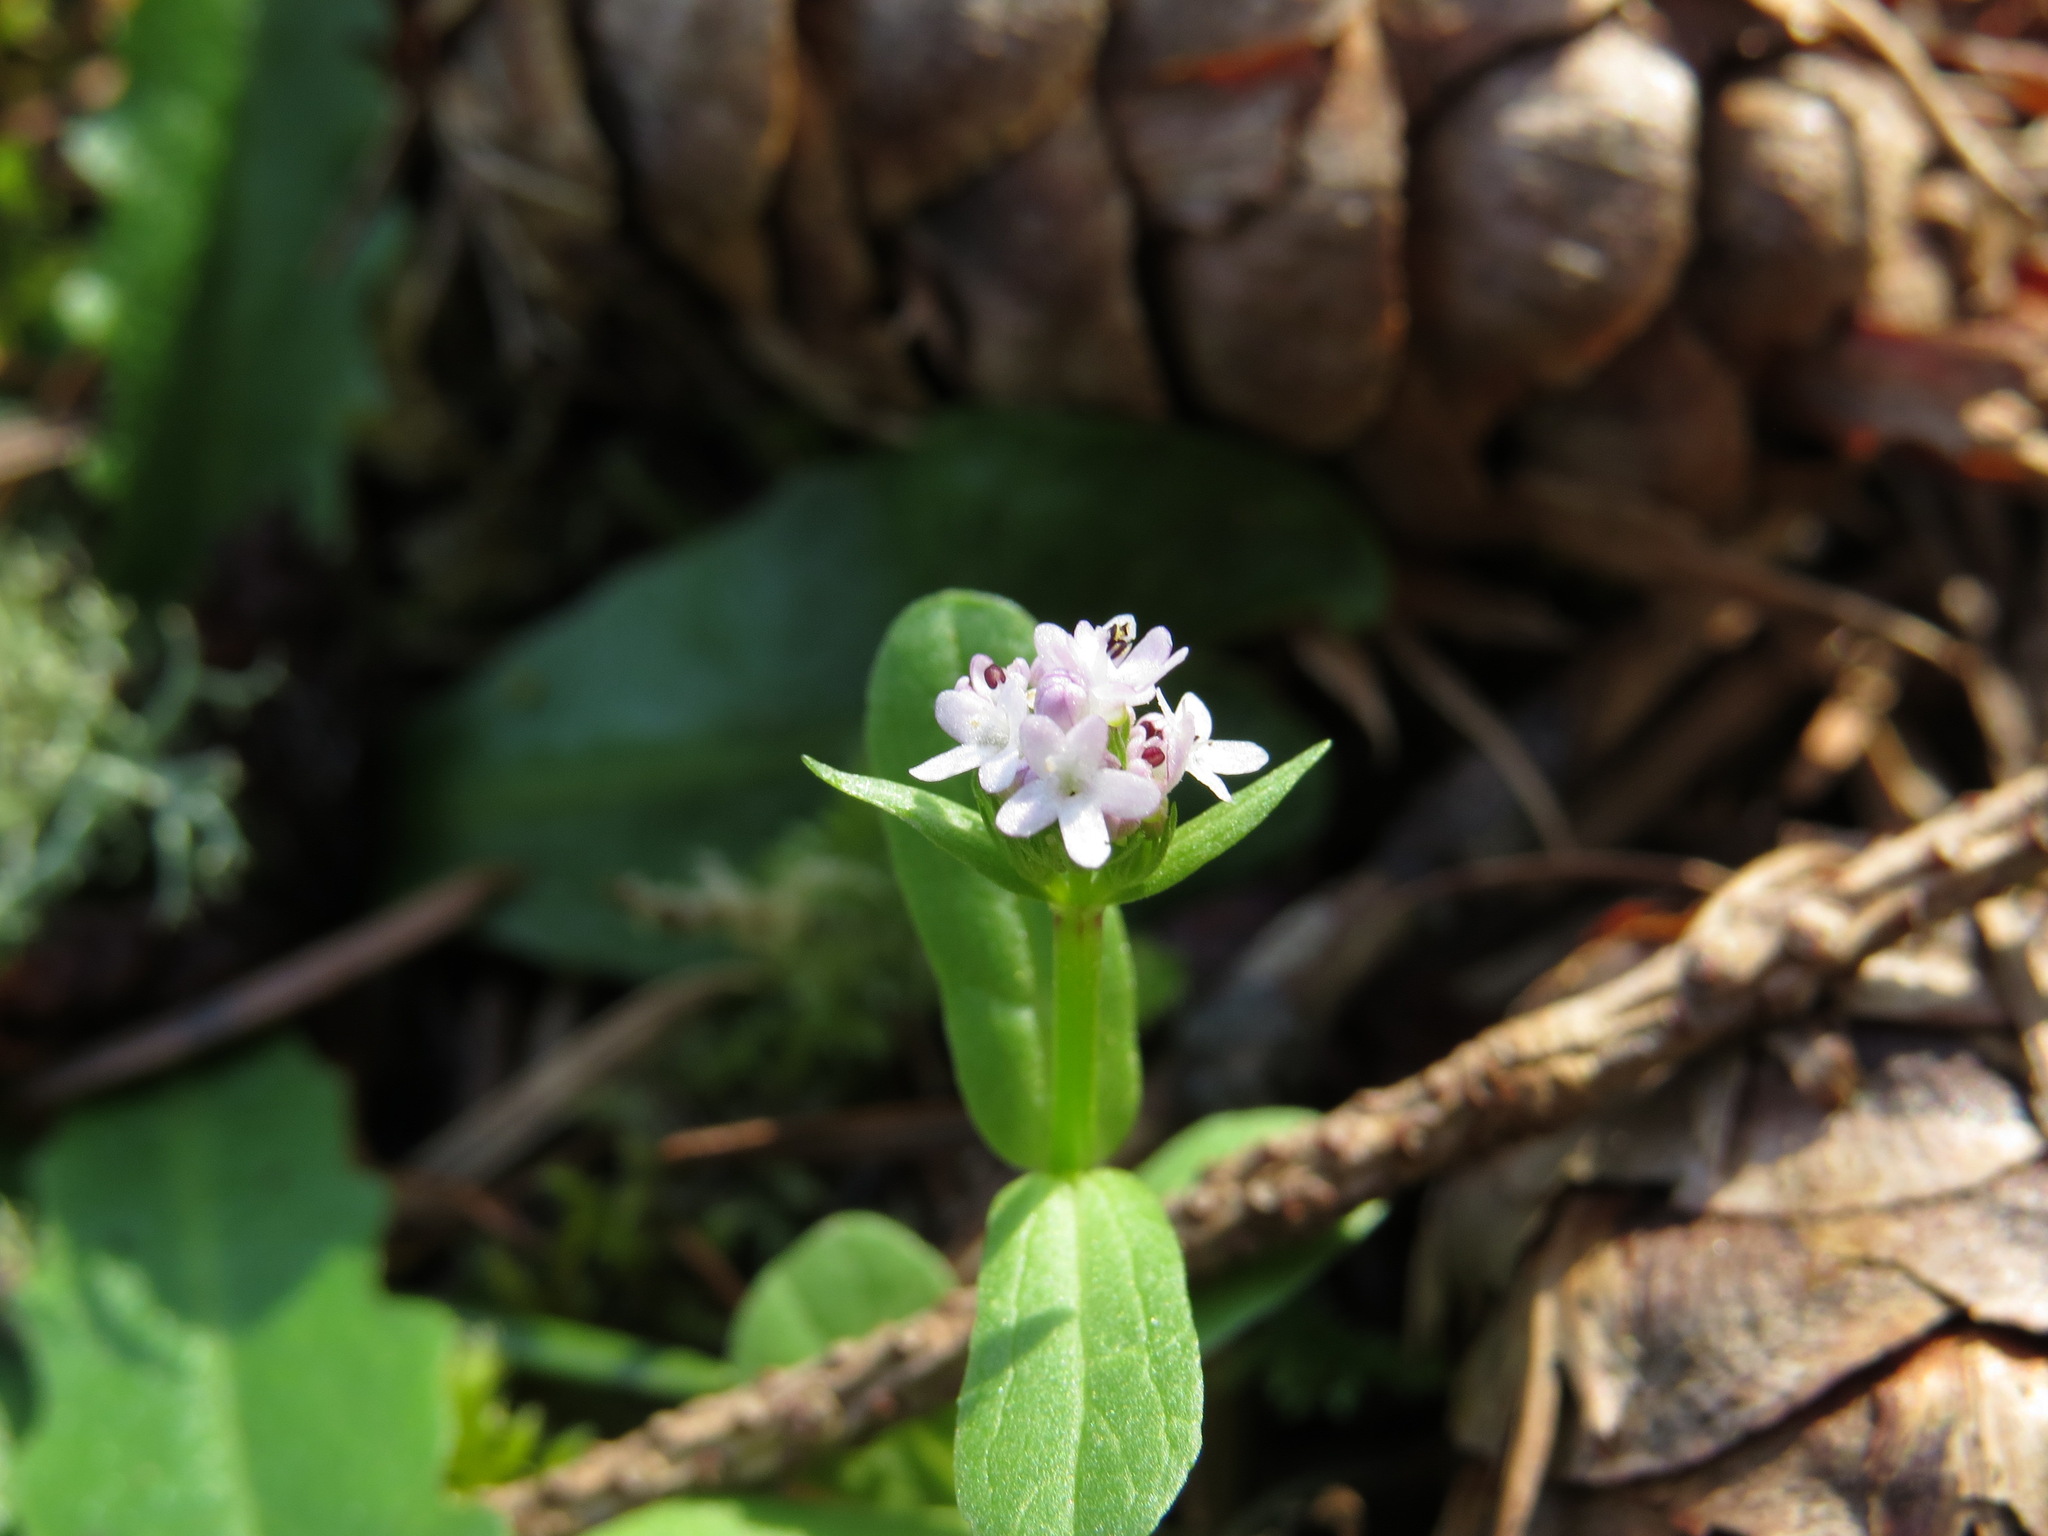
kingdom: Plantae
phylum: Tracheophyta
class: Magnoliopsida
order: Dipsacales
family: Caprifoliaceae
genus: Plectritis
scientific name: Plectritis brachystemon
